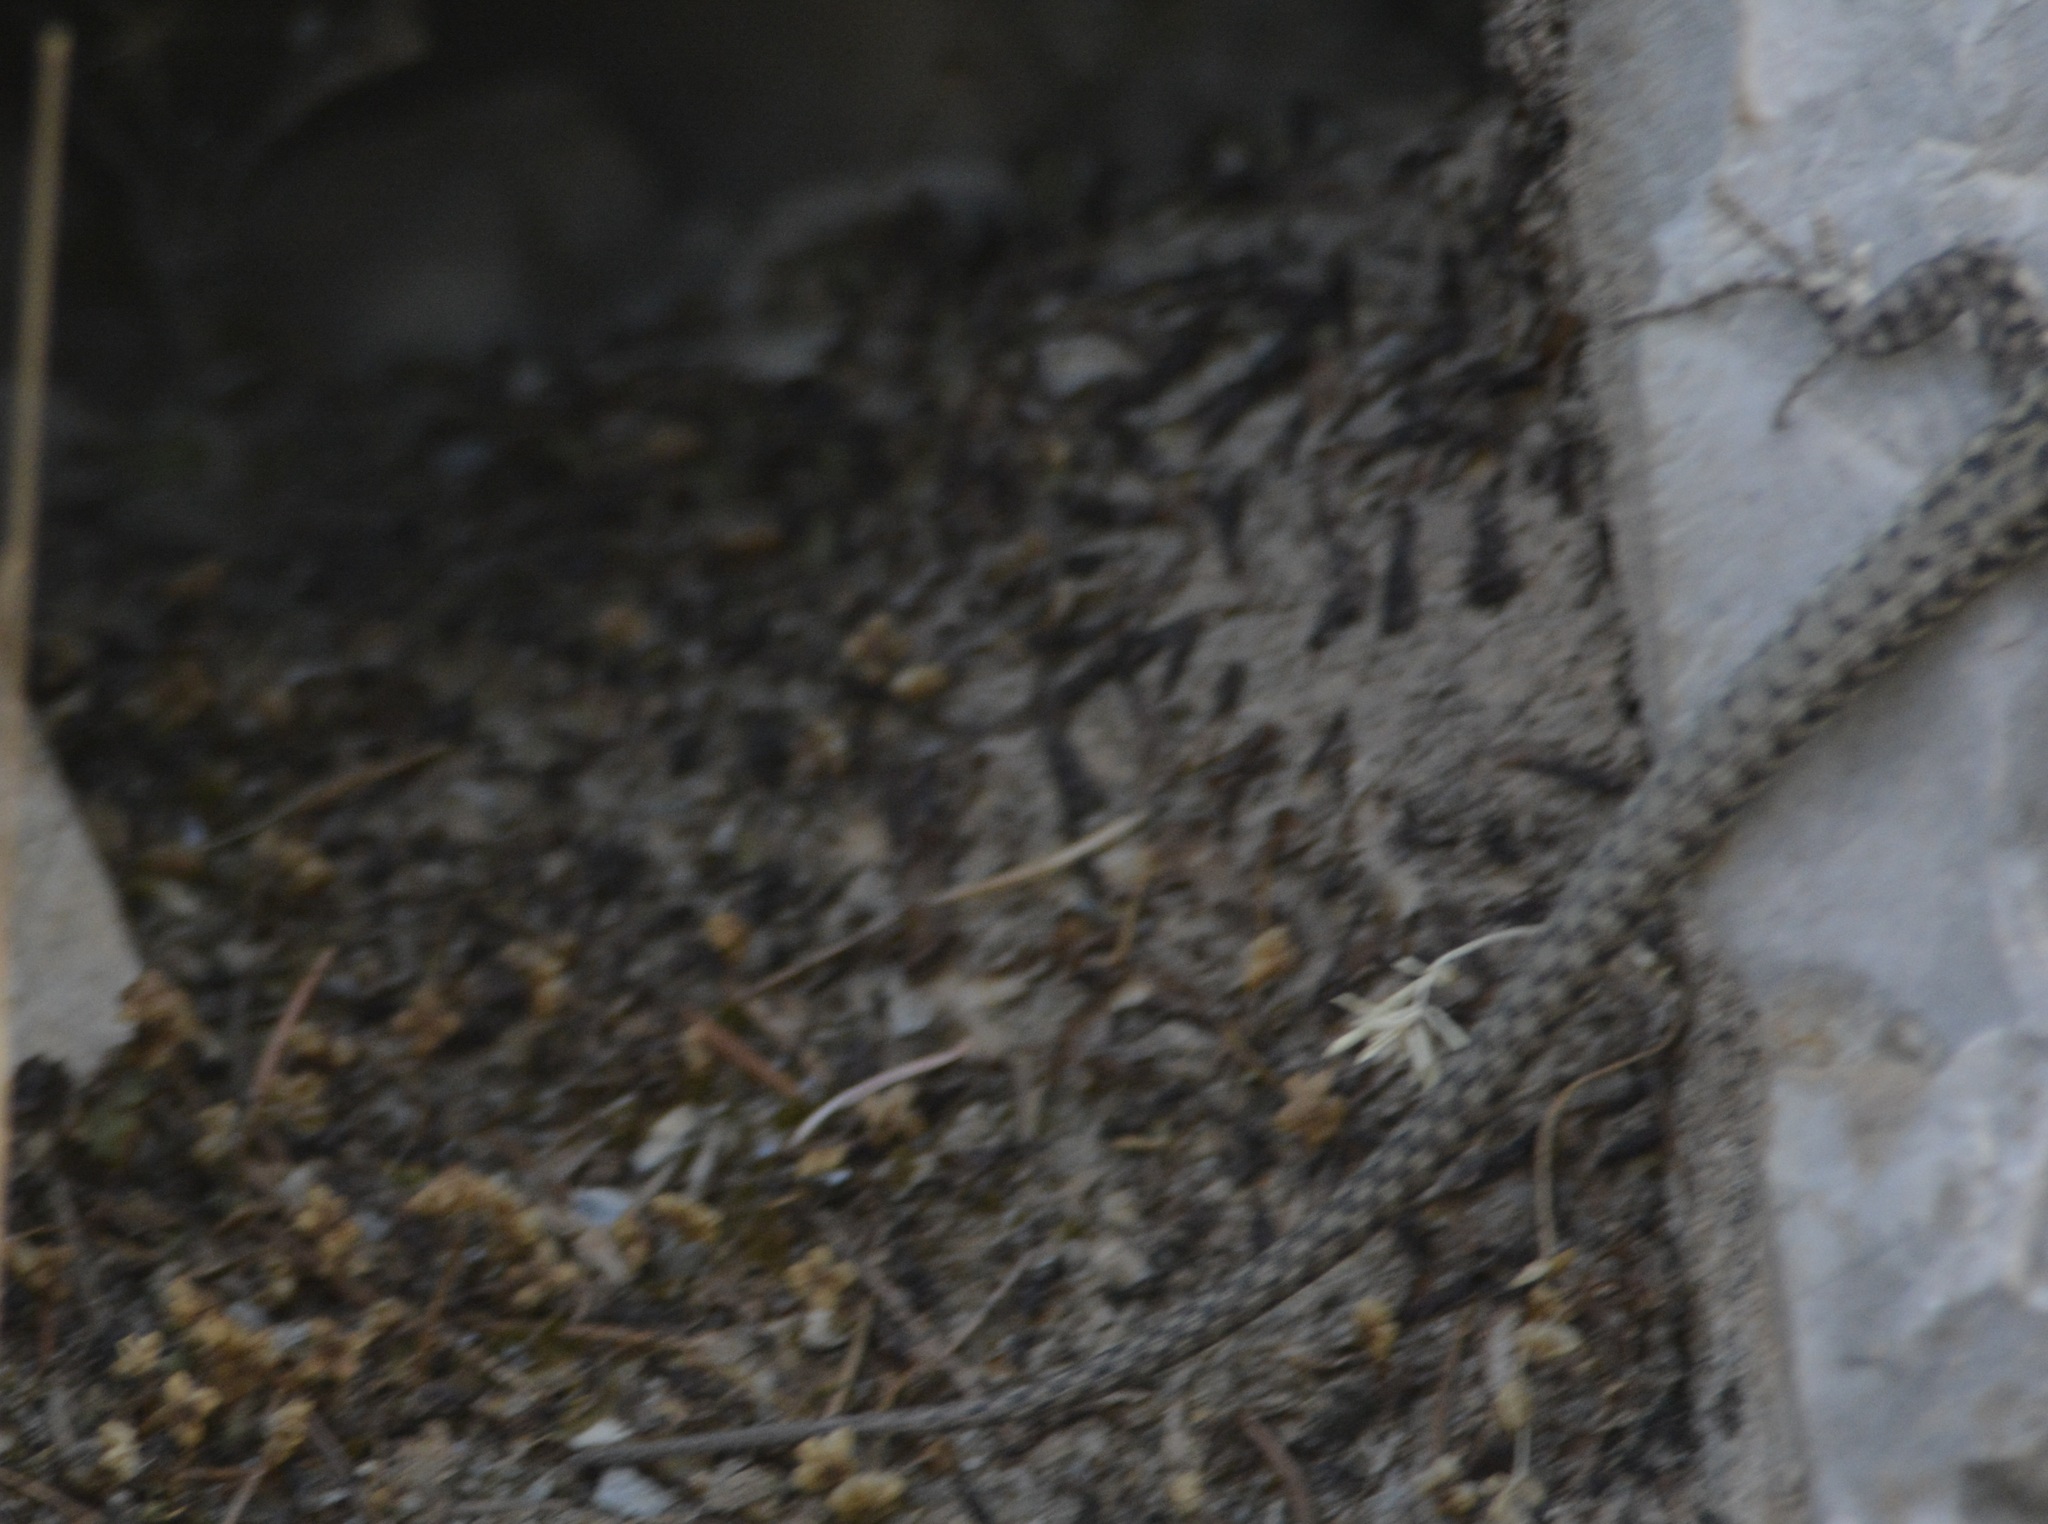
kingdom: Animalia
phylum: Chordata
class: Squamata
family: Lacertidae
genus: Podarcis
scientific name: Podarcis vaucheri
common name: Vaucher's wall lizard
